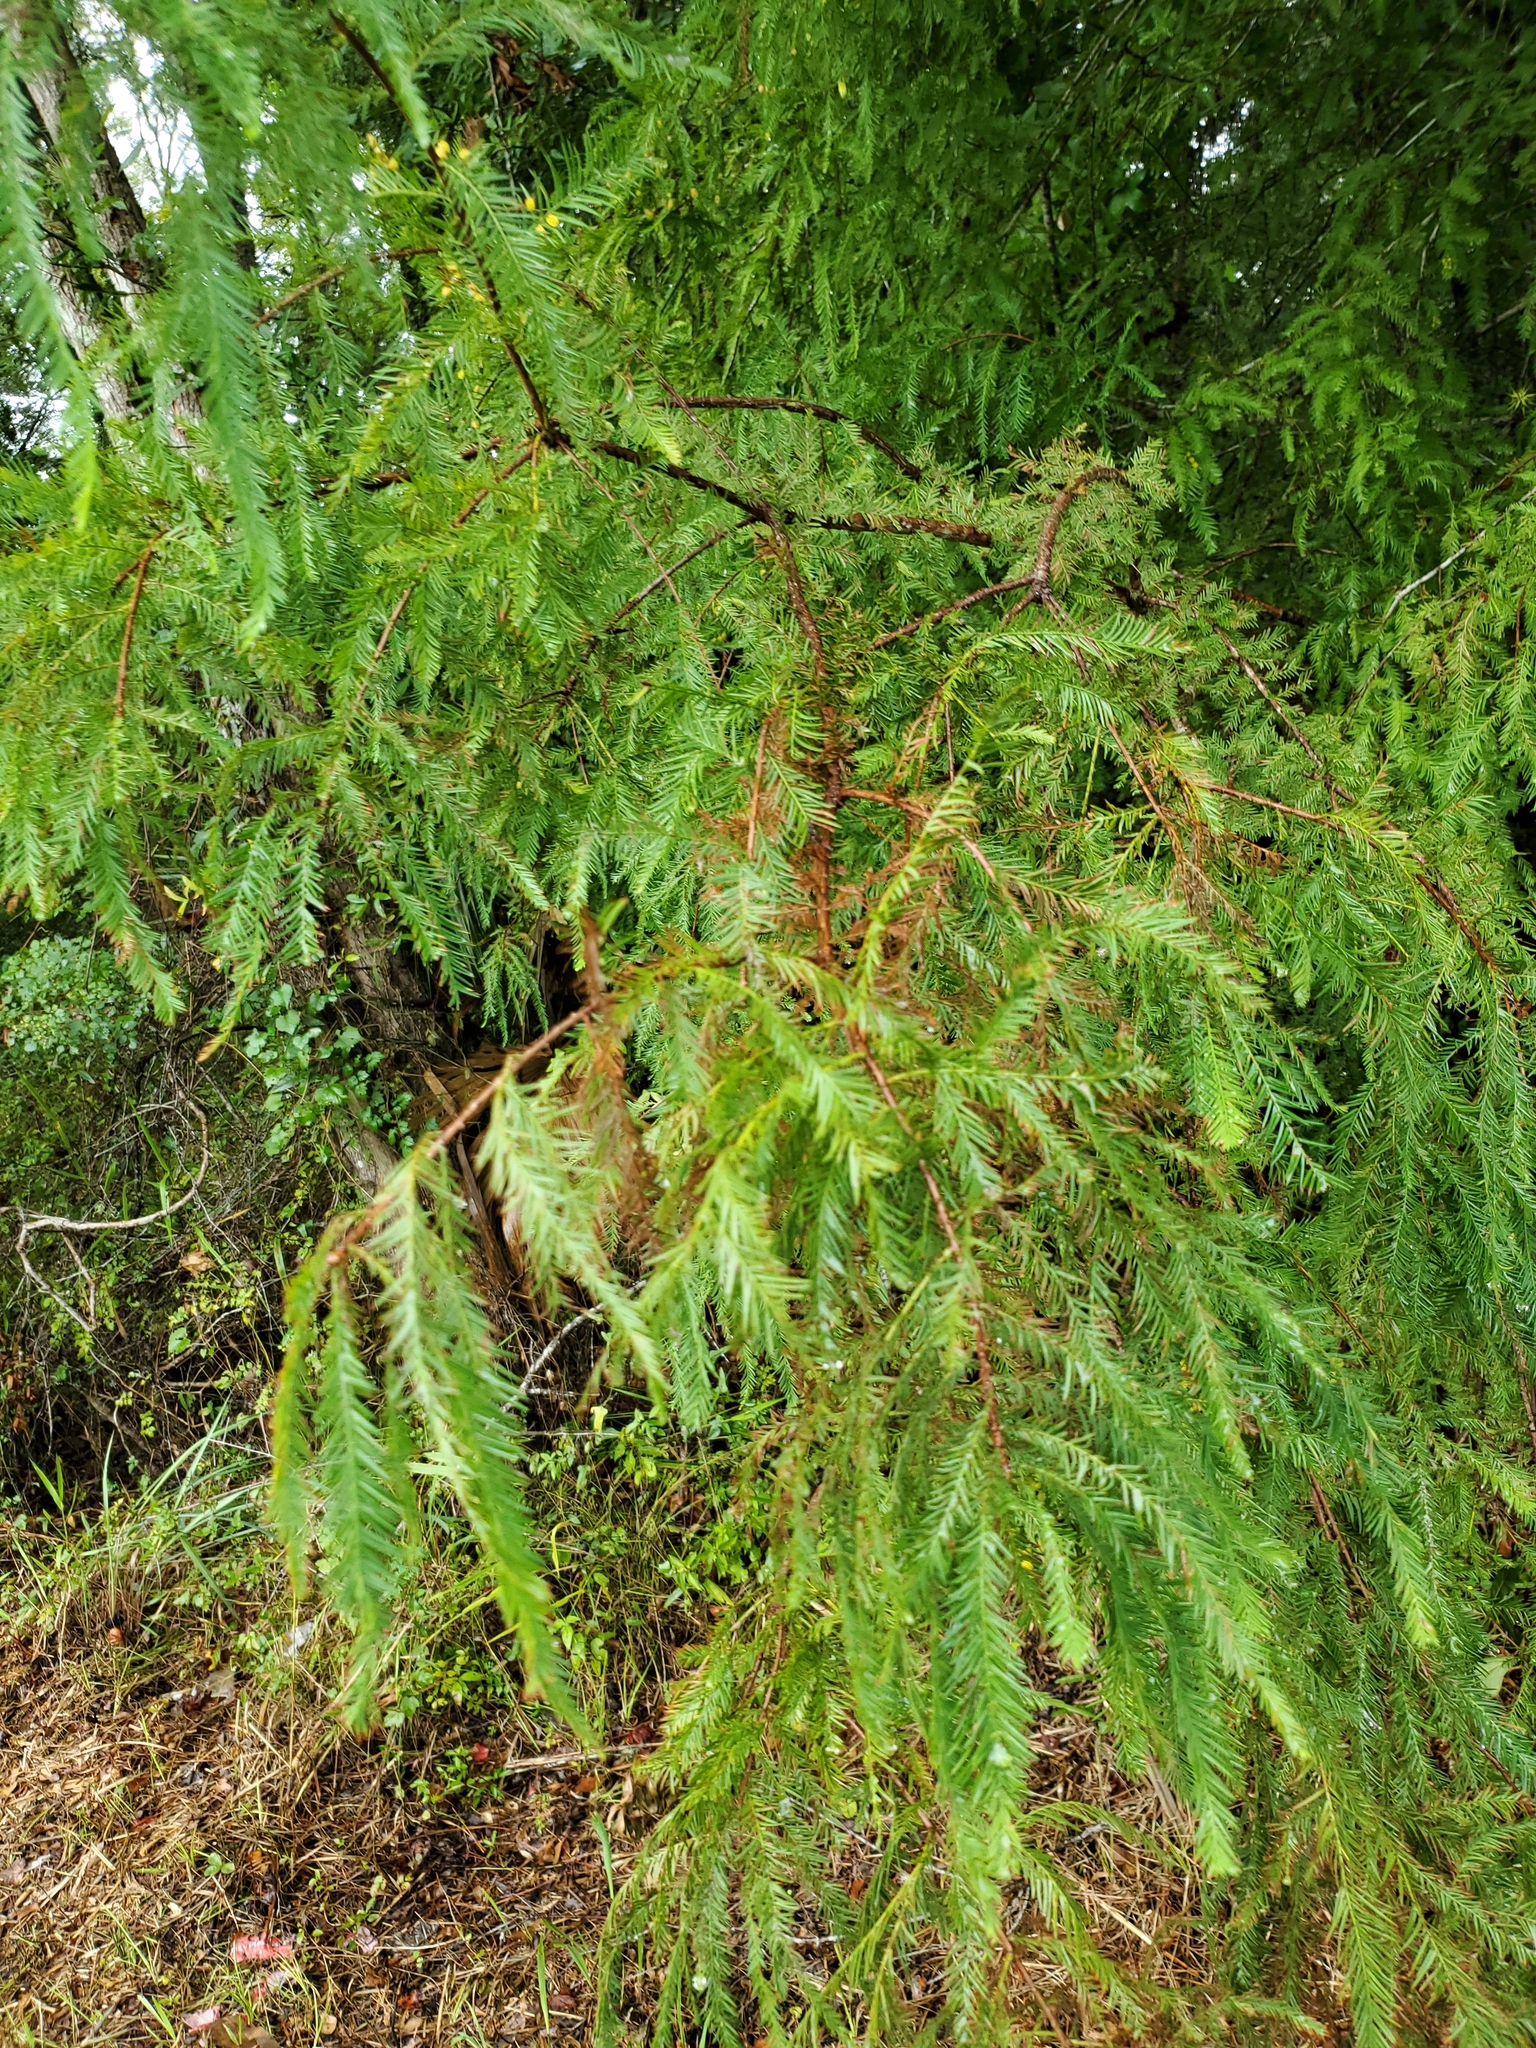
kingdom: Plantae
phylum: Tracheophyta
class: Pinopsida
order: Pinales
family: Cupressaceae
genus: Taxodium
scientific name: Taxodium distichum
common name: Bald cypress
